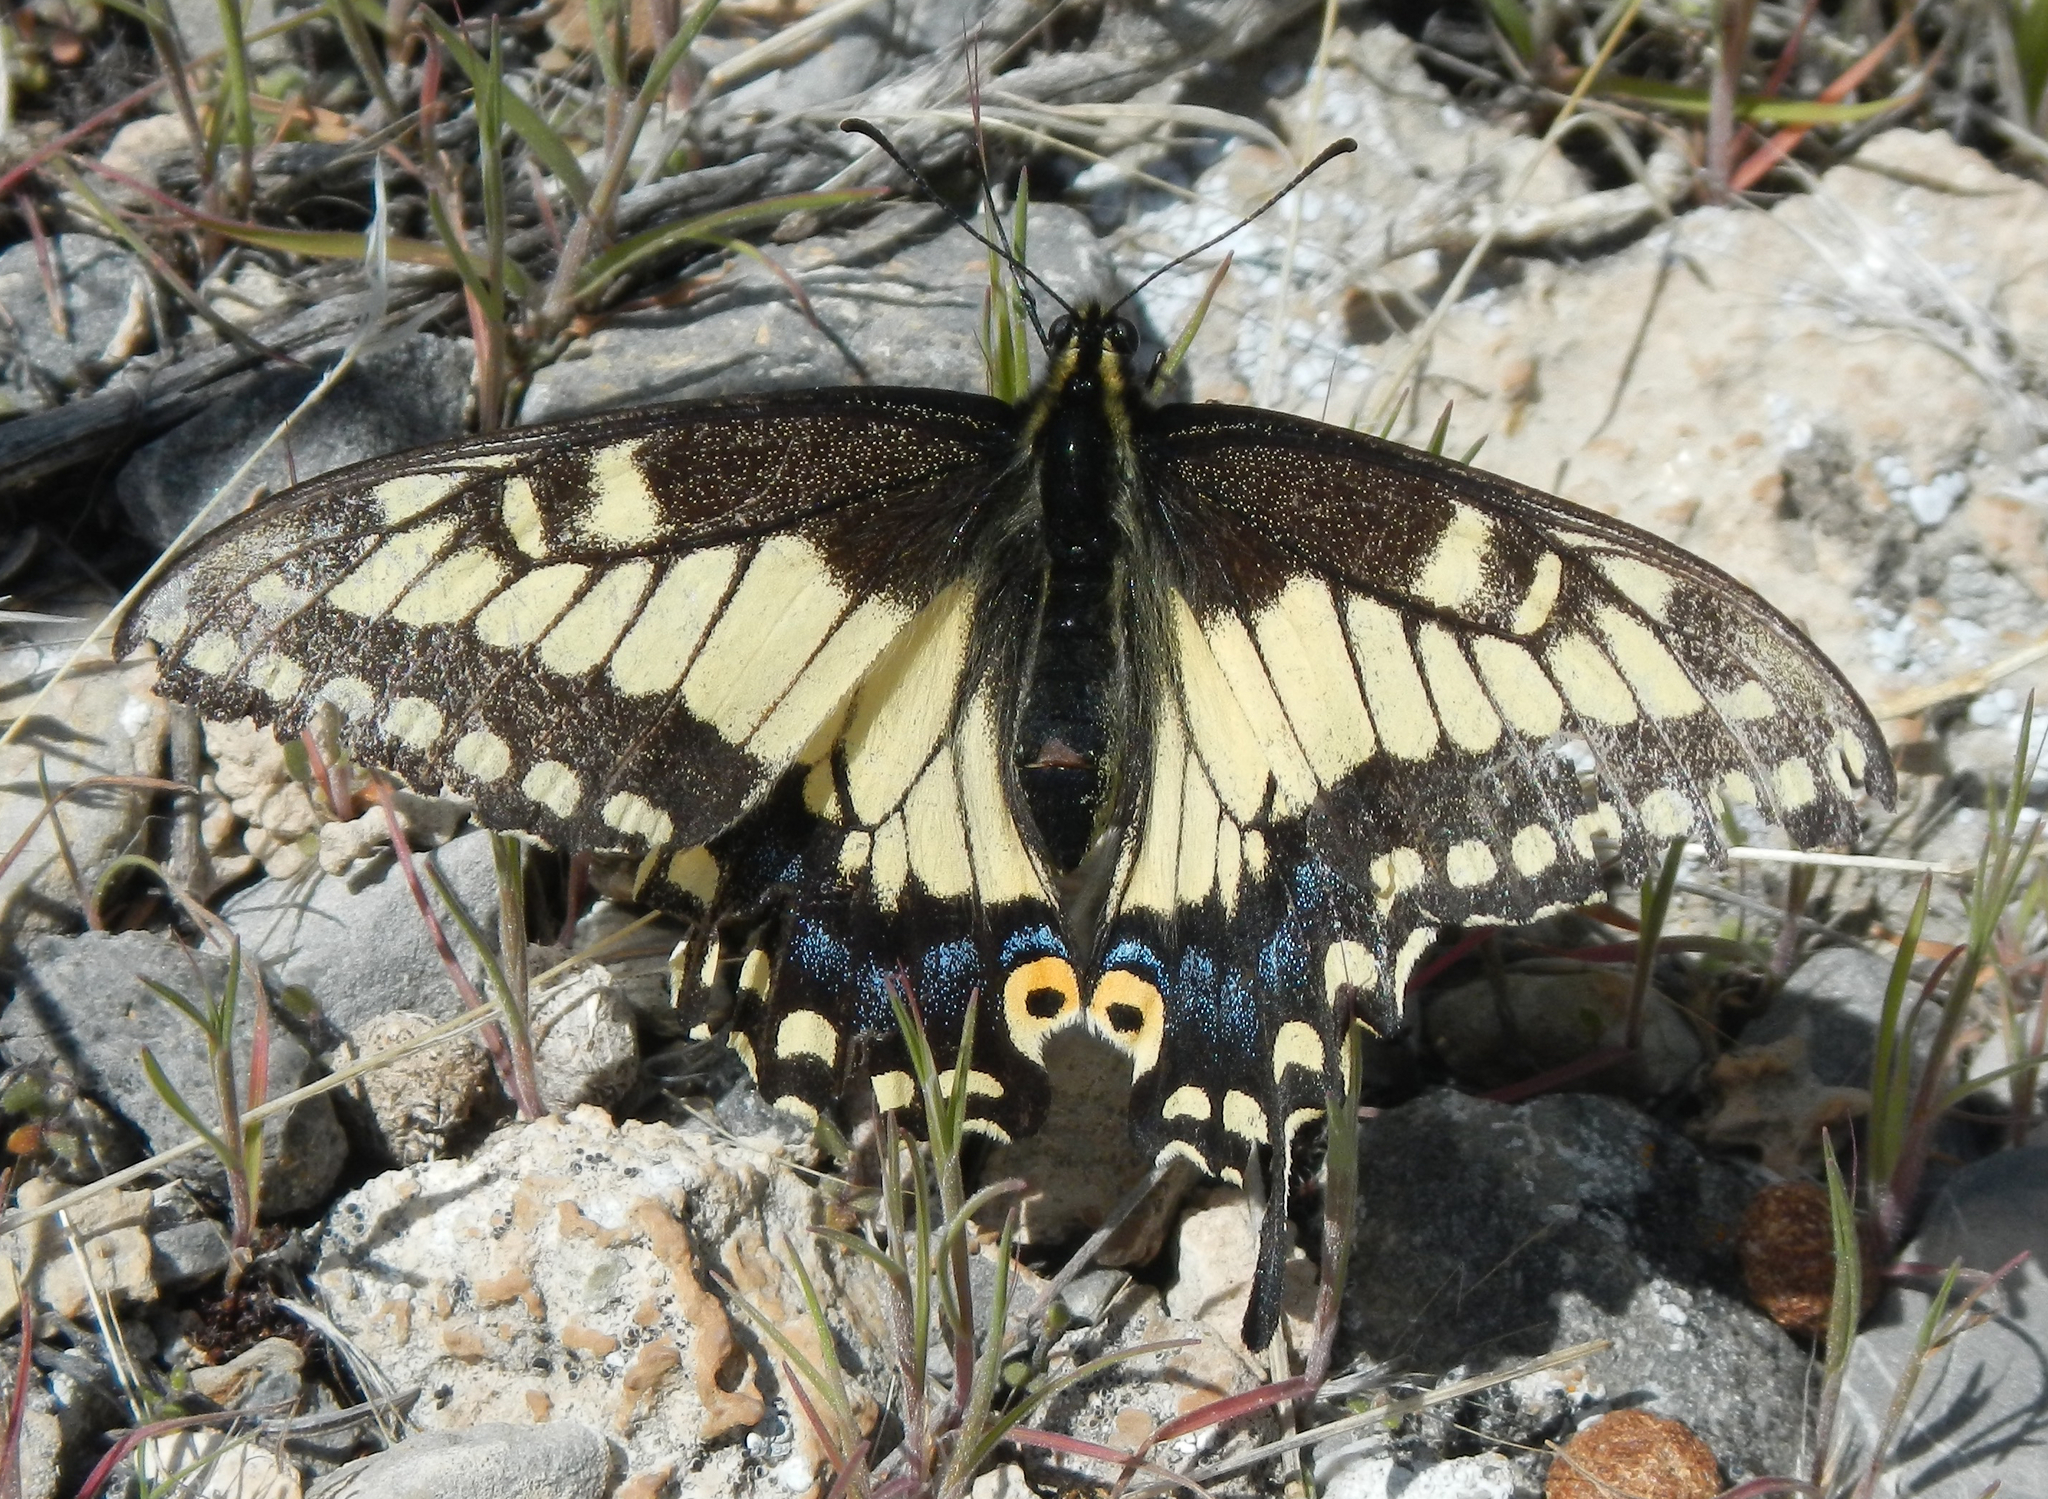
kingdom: Animalia
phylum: Arthropoda
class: Insecta
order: Lepidoptera
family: Papilionidae
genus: Papilio
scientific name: Papilio polyxenes
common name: Black swallowtail
